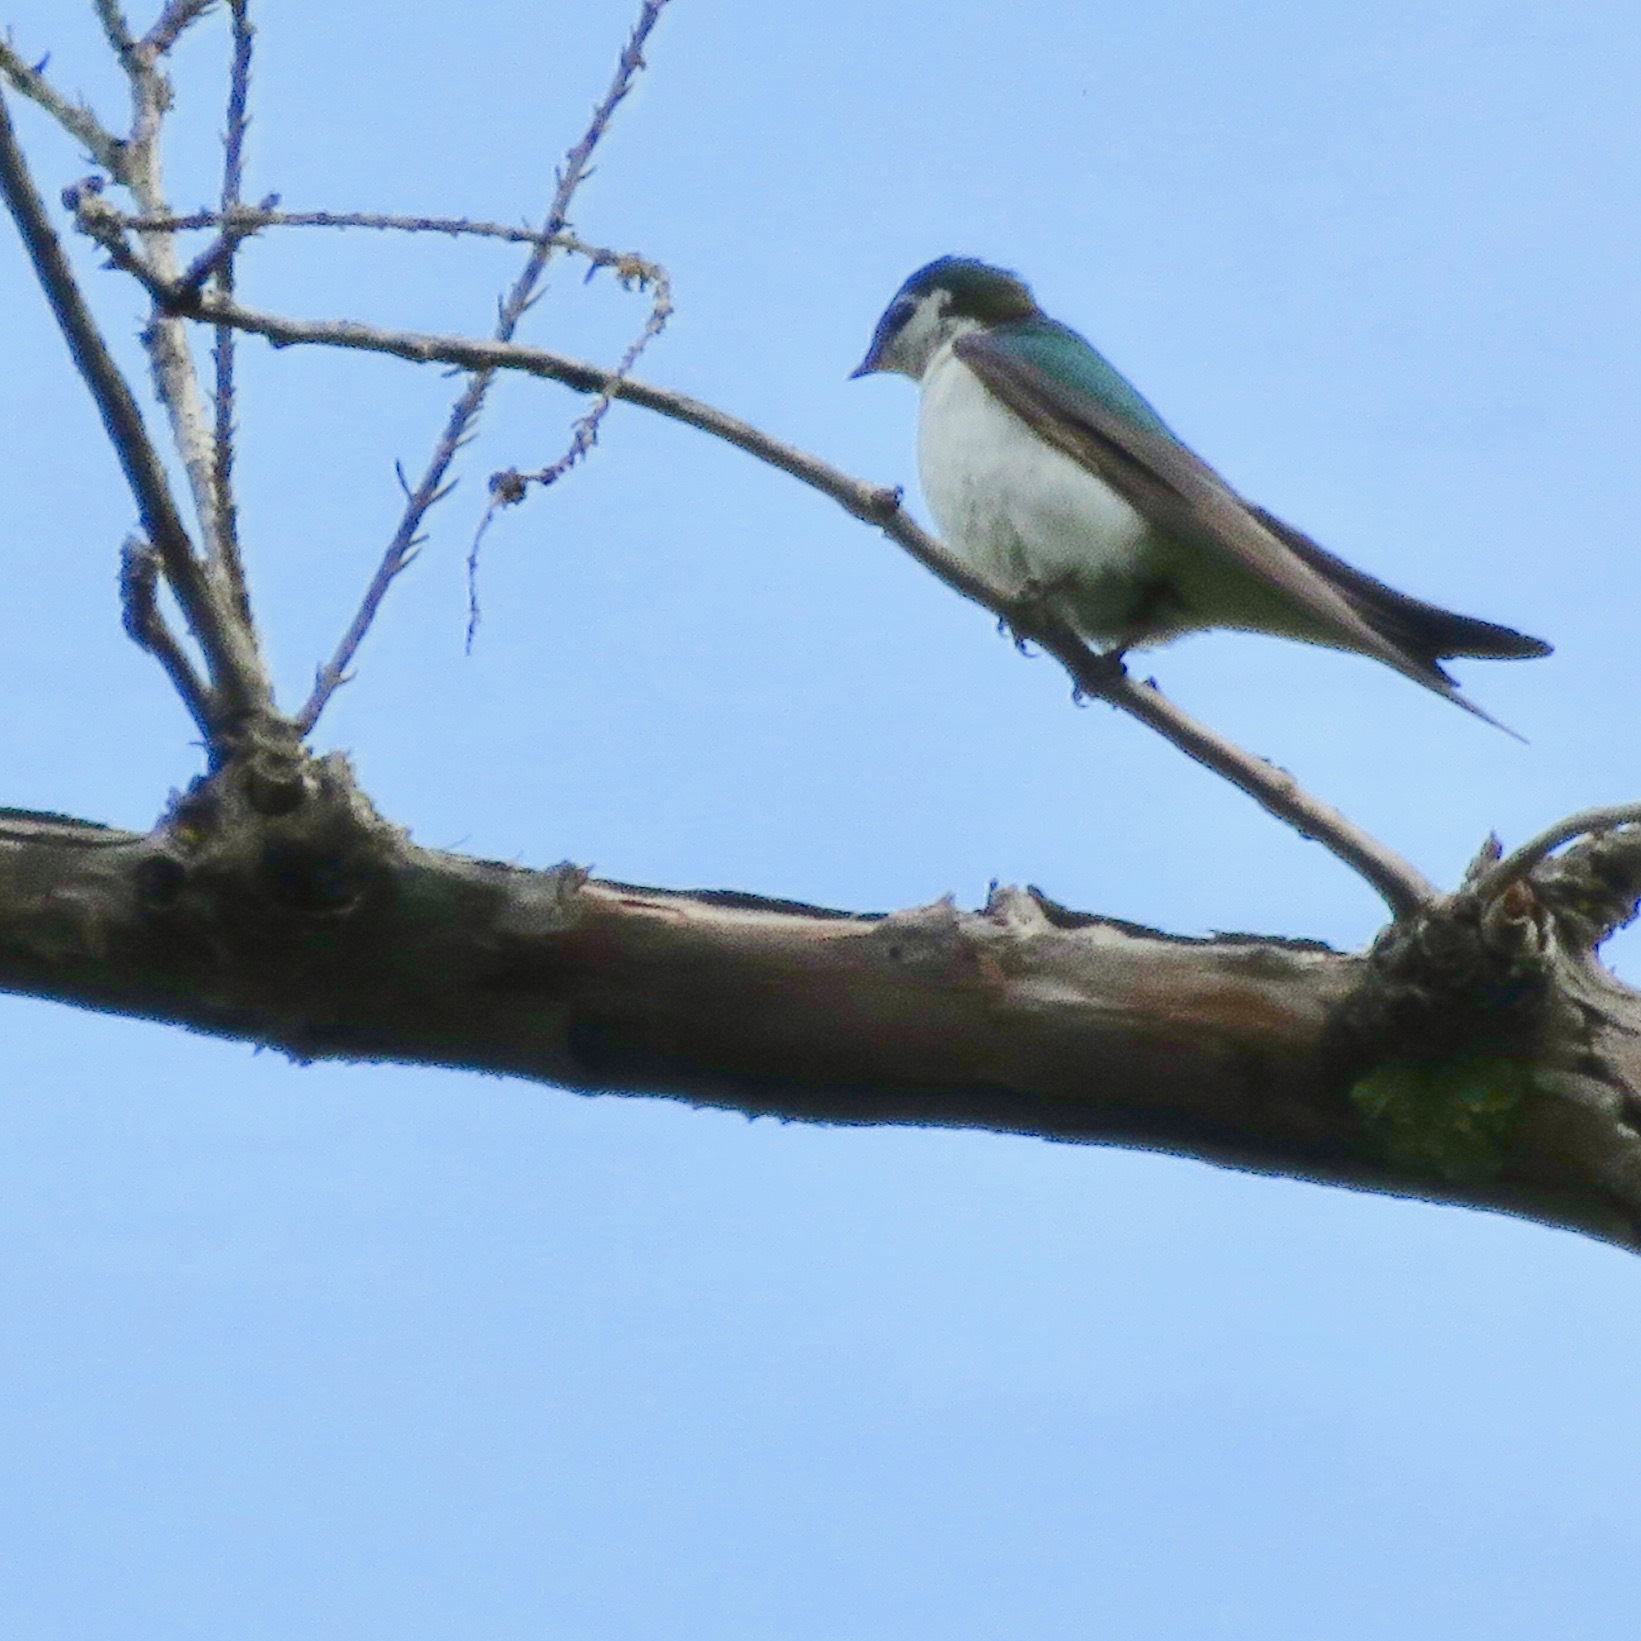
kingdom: Animalia
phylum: Chordata
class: Aves
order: Passeriformes
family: Hirundinidae
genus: Tachycineta
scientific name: Tachycineta thalassina
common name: Violet-green swallow
